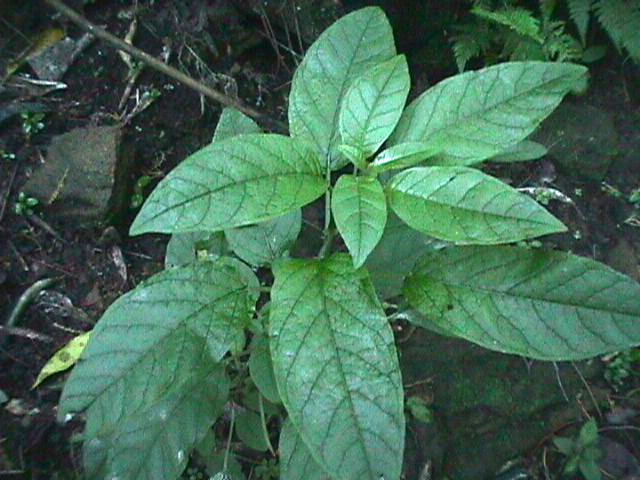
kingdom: Plantae
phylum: Tracheophyta
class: Magnoliopsida
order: Myrtales
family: Onagraceae
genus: Fuchsia
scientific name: Fuchsia excorticata
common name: Tree fuchsia
